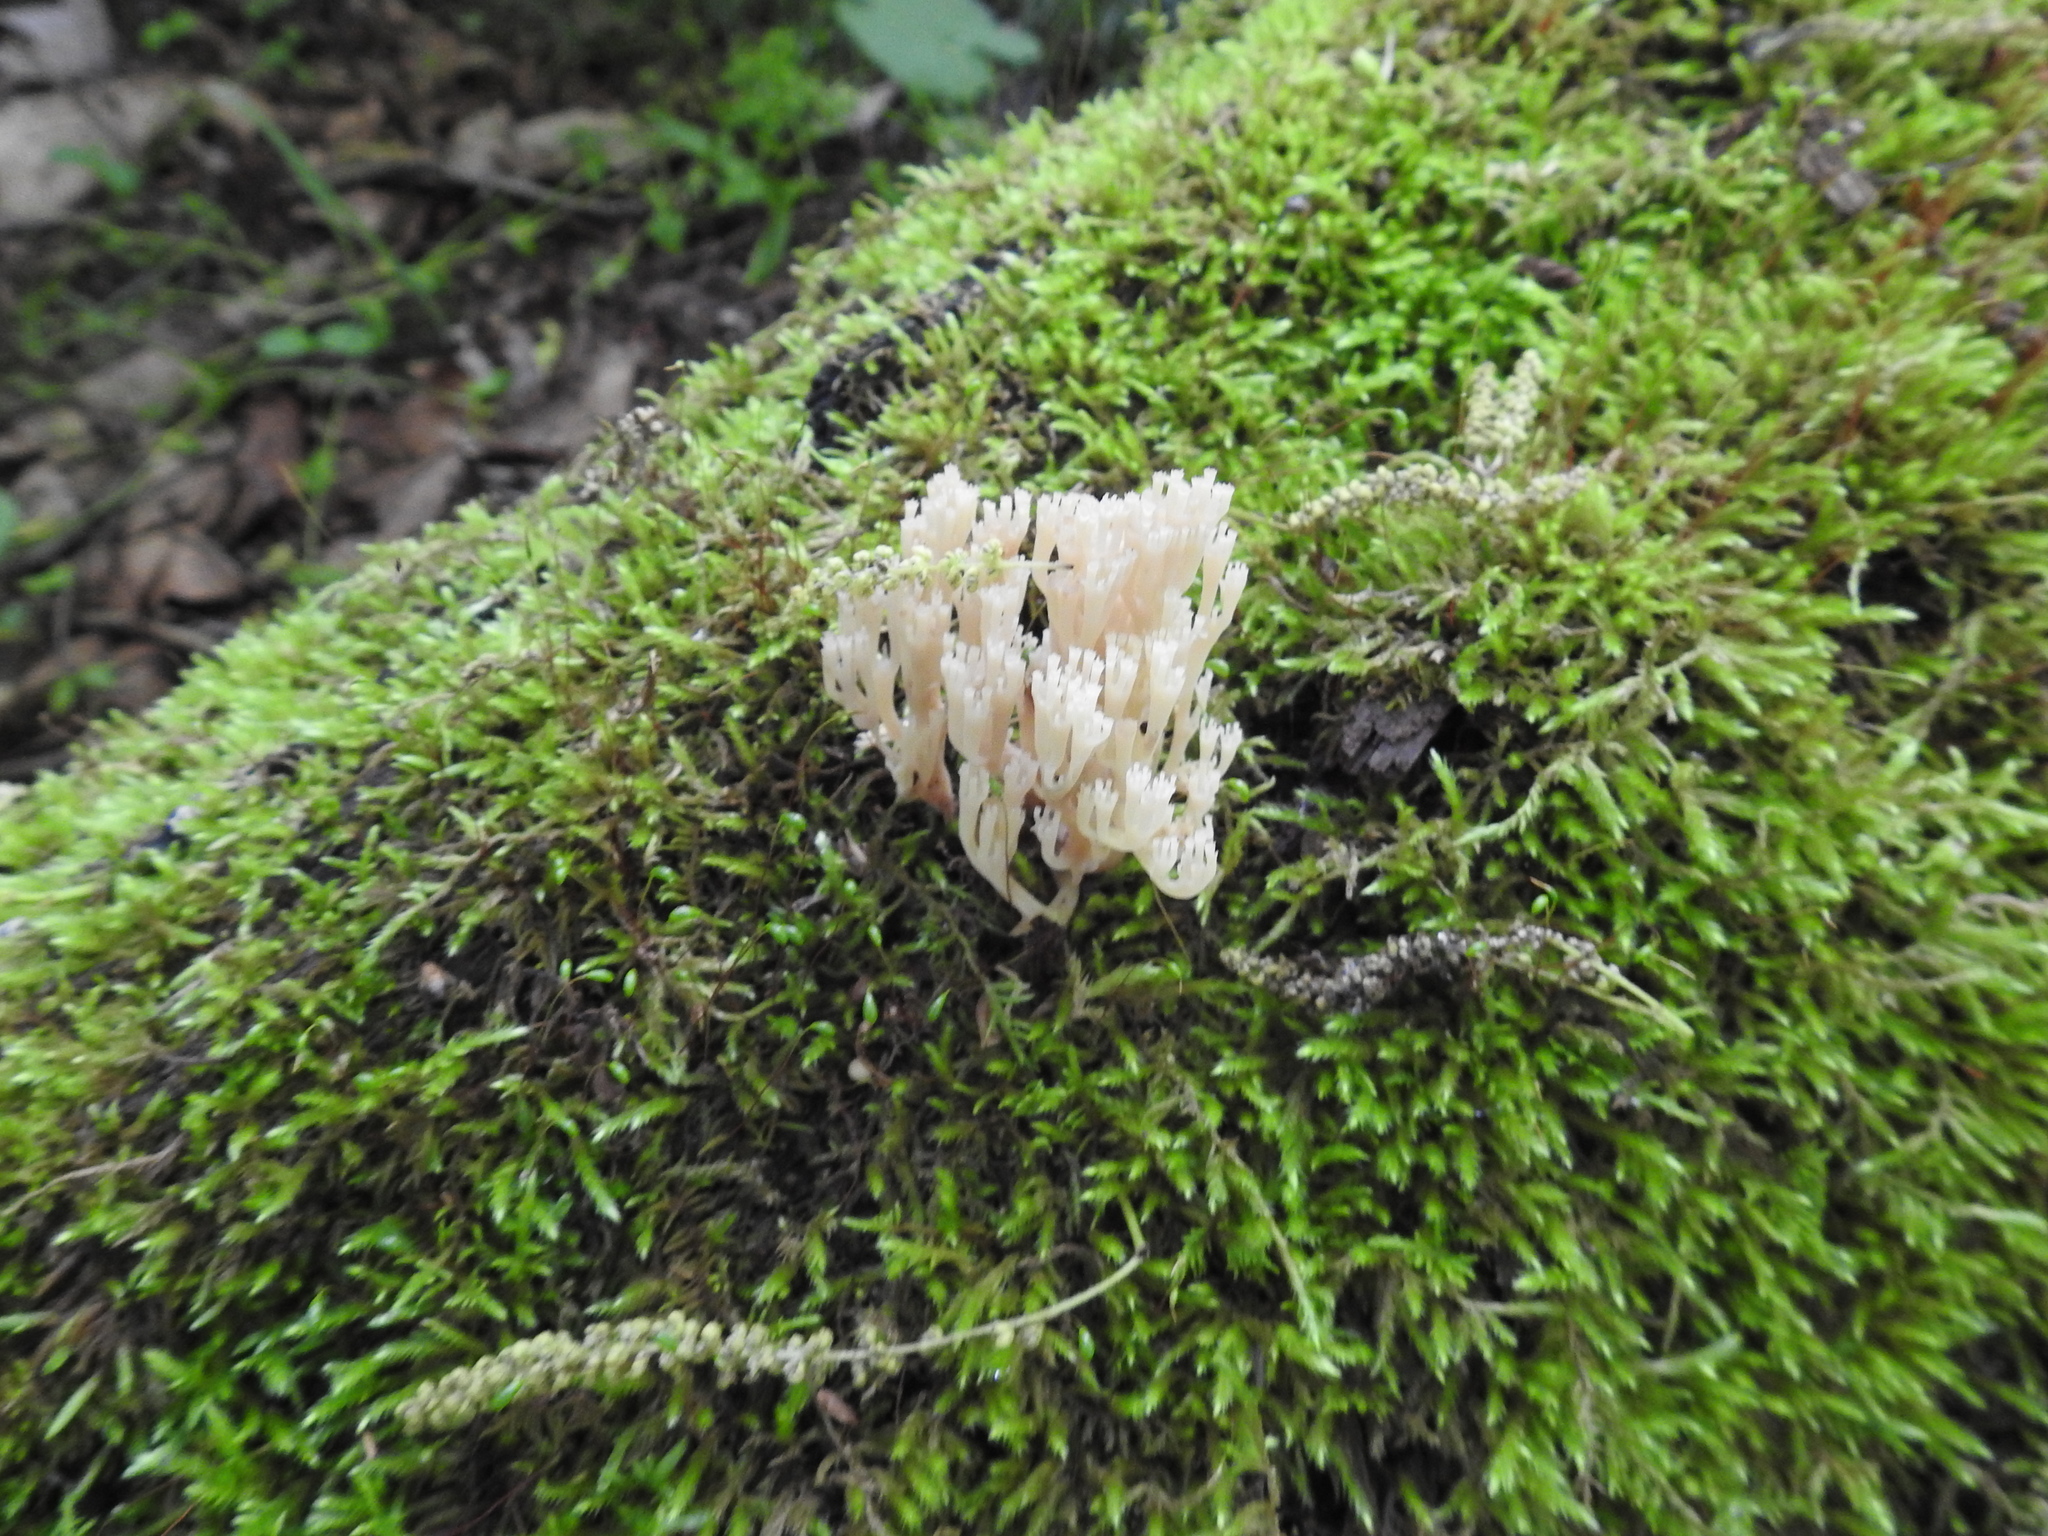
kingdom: Fungi
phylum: Basidiomycota
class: Agaricomycetes
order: Russulales
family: Auriscalpiaceae
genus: Artomyces
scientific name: Artomyces pyxidatus
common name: Crown-tipped coral fungus
